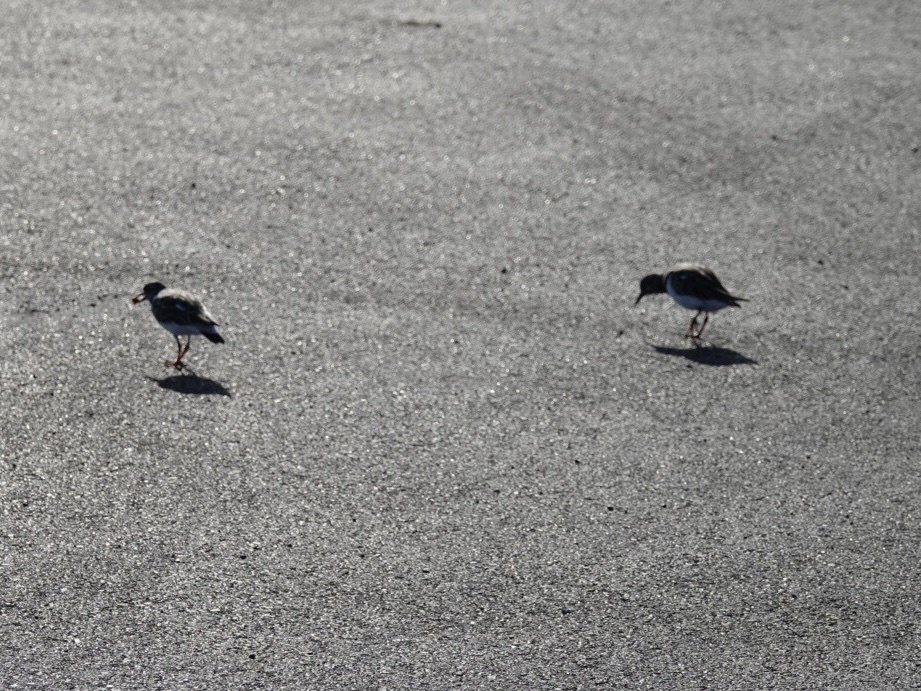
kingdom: Animalia
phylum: Chordata
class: Aves
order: Charadriiformes
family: Scolopacidae
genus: Arenaria
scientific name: Arenaria interpres
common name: Ruddy turnstone
